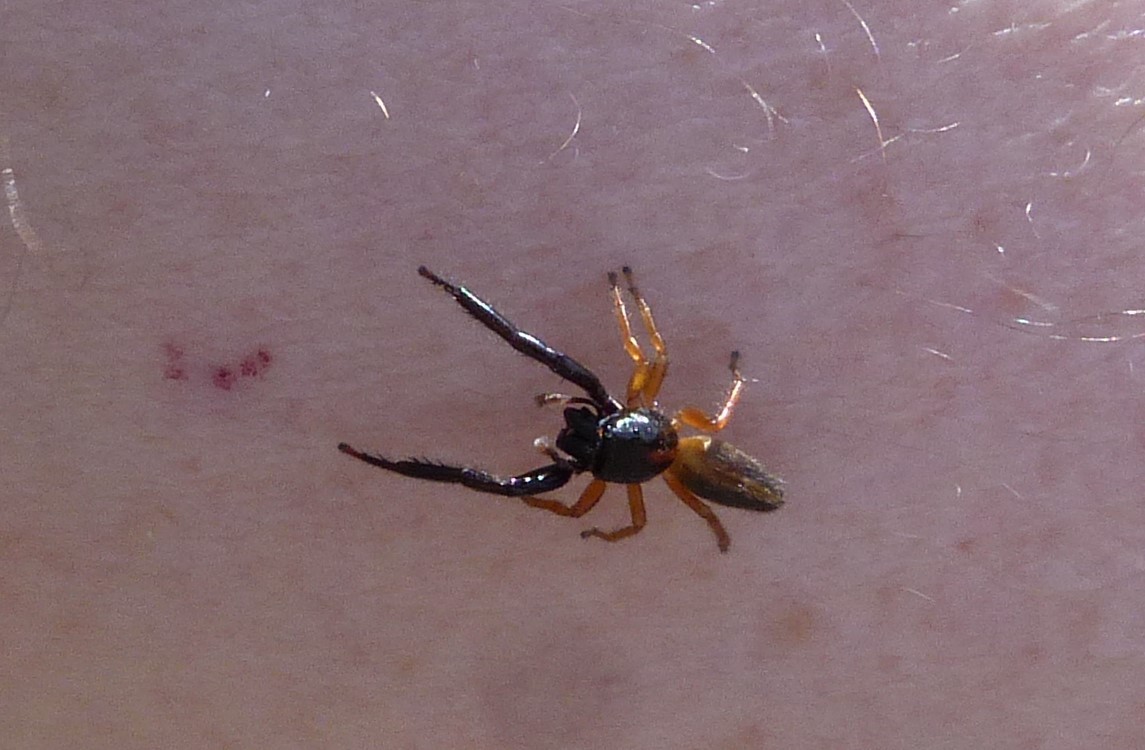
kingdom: Animalia
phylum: Arthropoda
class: Arachnida
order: Araneae
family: Salticidae
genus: Trite
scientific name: Trite planiceps
